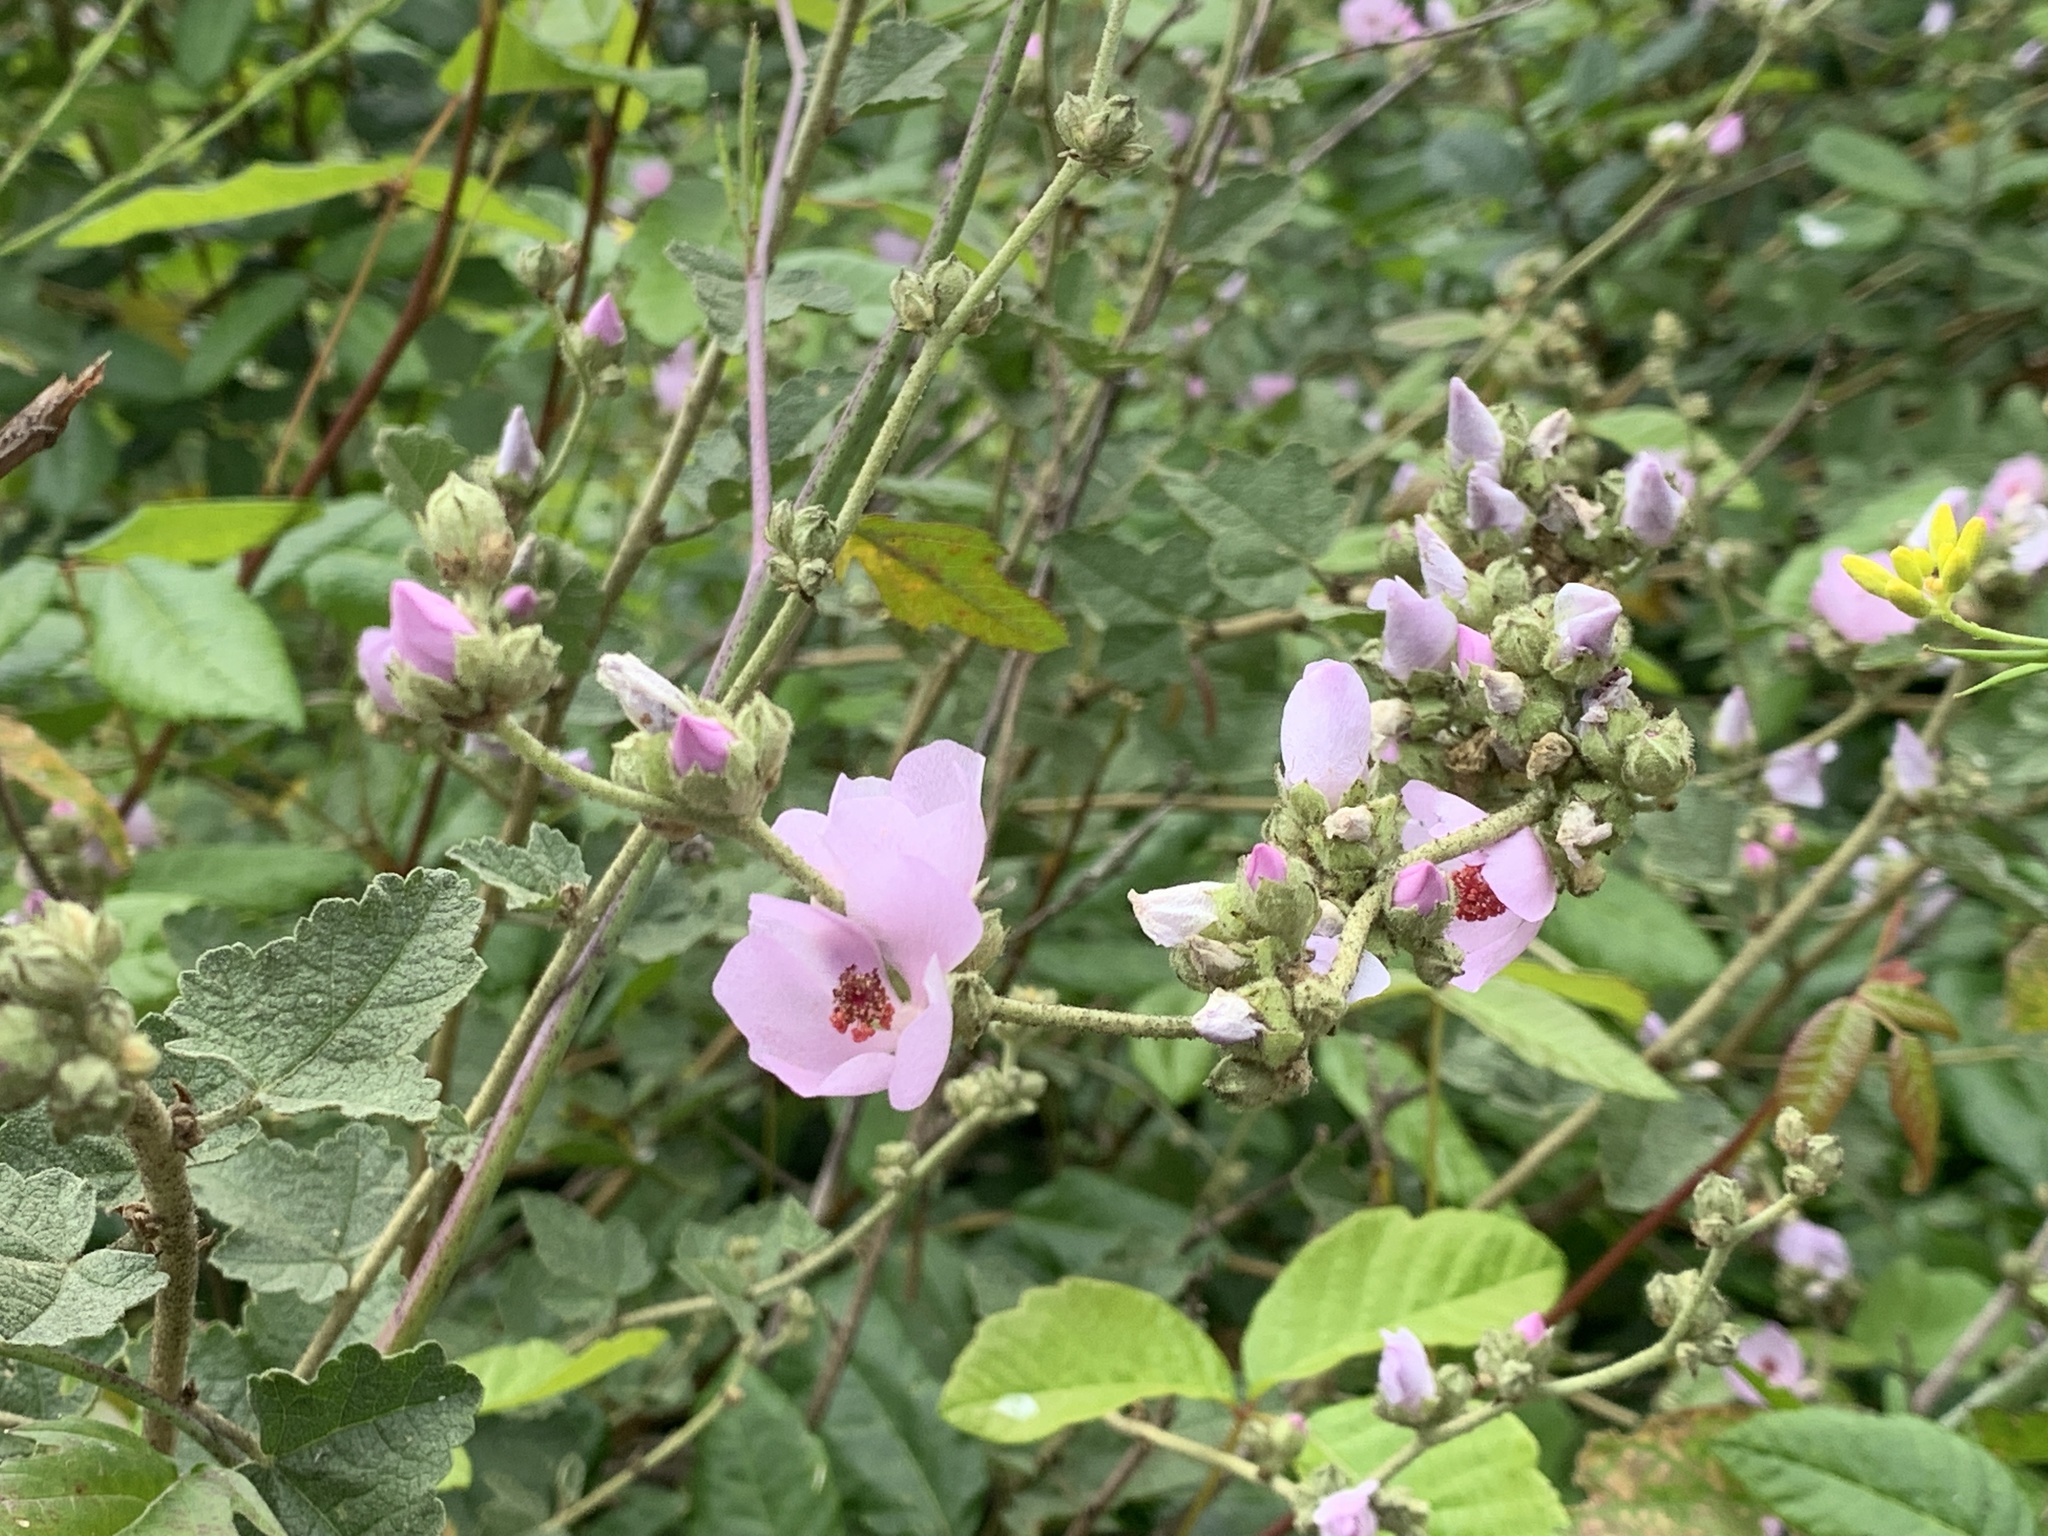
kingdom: Plantae
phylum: Tracheophyta
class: Magnoliopsida
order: Malvales
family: Malvaceae
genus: Malacothamnus
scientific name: Malacothamnus fasciculatus
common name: Sant cruz island bush-mallow
